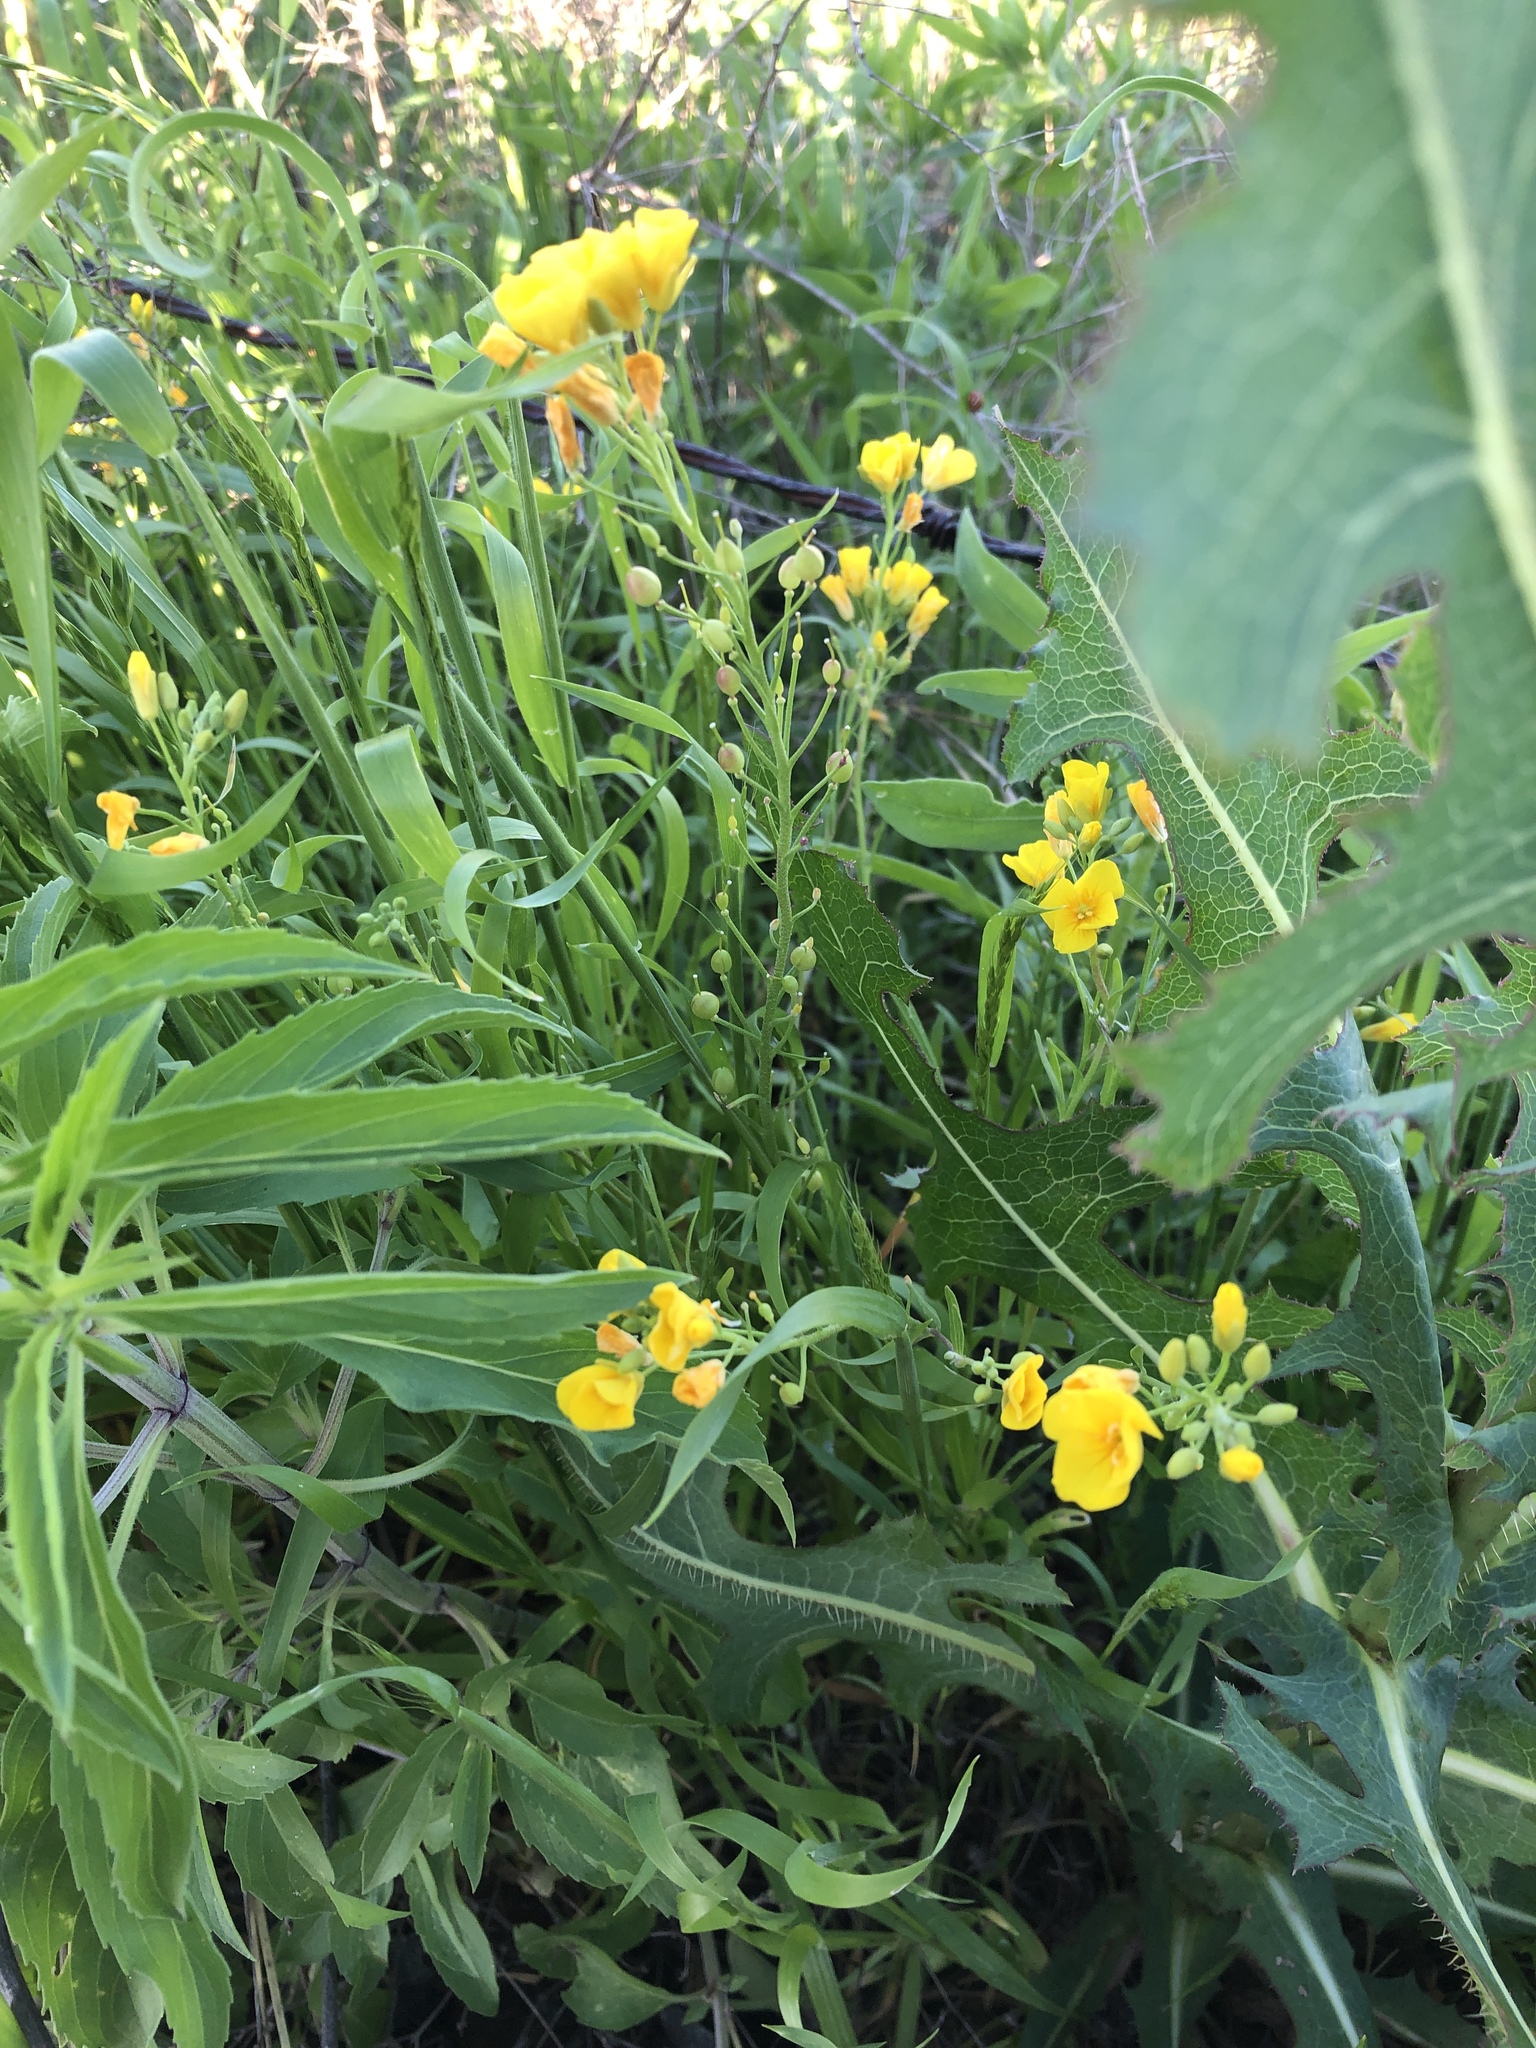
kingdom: Plantae
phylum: Tracheophyta
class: Magnoliopsida
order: Brassicales
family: Brassicaceae
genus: Physaria
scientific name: Physaria gracilis
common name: Spreading bladderpod
